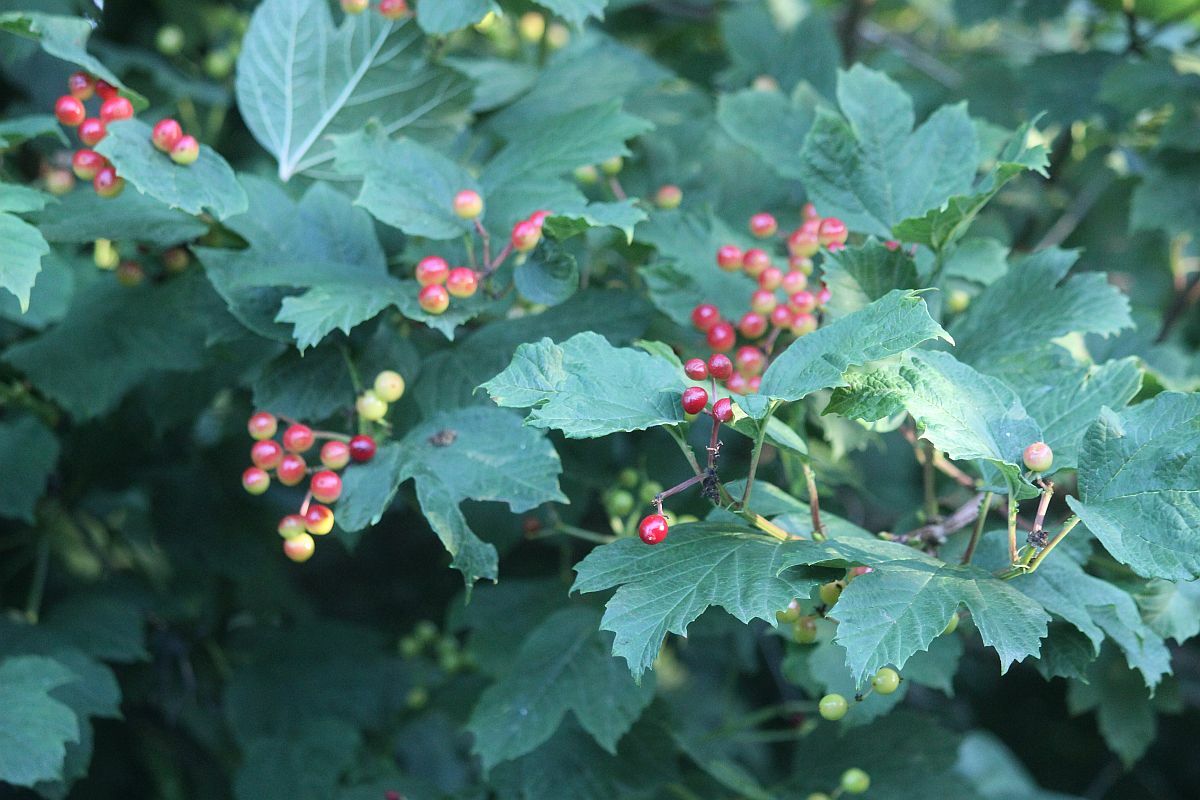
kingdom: Plantae
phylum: Tracheophyta
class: Magnoliopsida
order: Dipsacales
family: Viburnaceae
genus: Viburnum
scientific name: Viburnum opulus
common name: Guelder-rose
